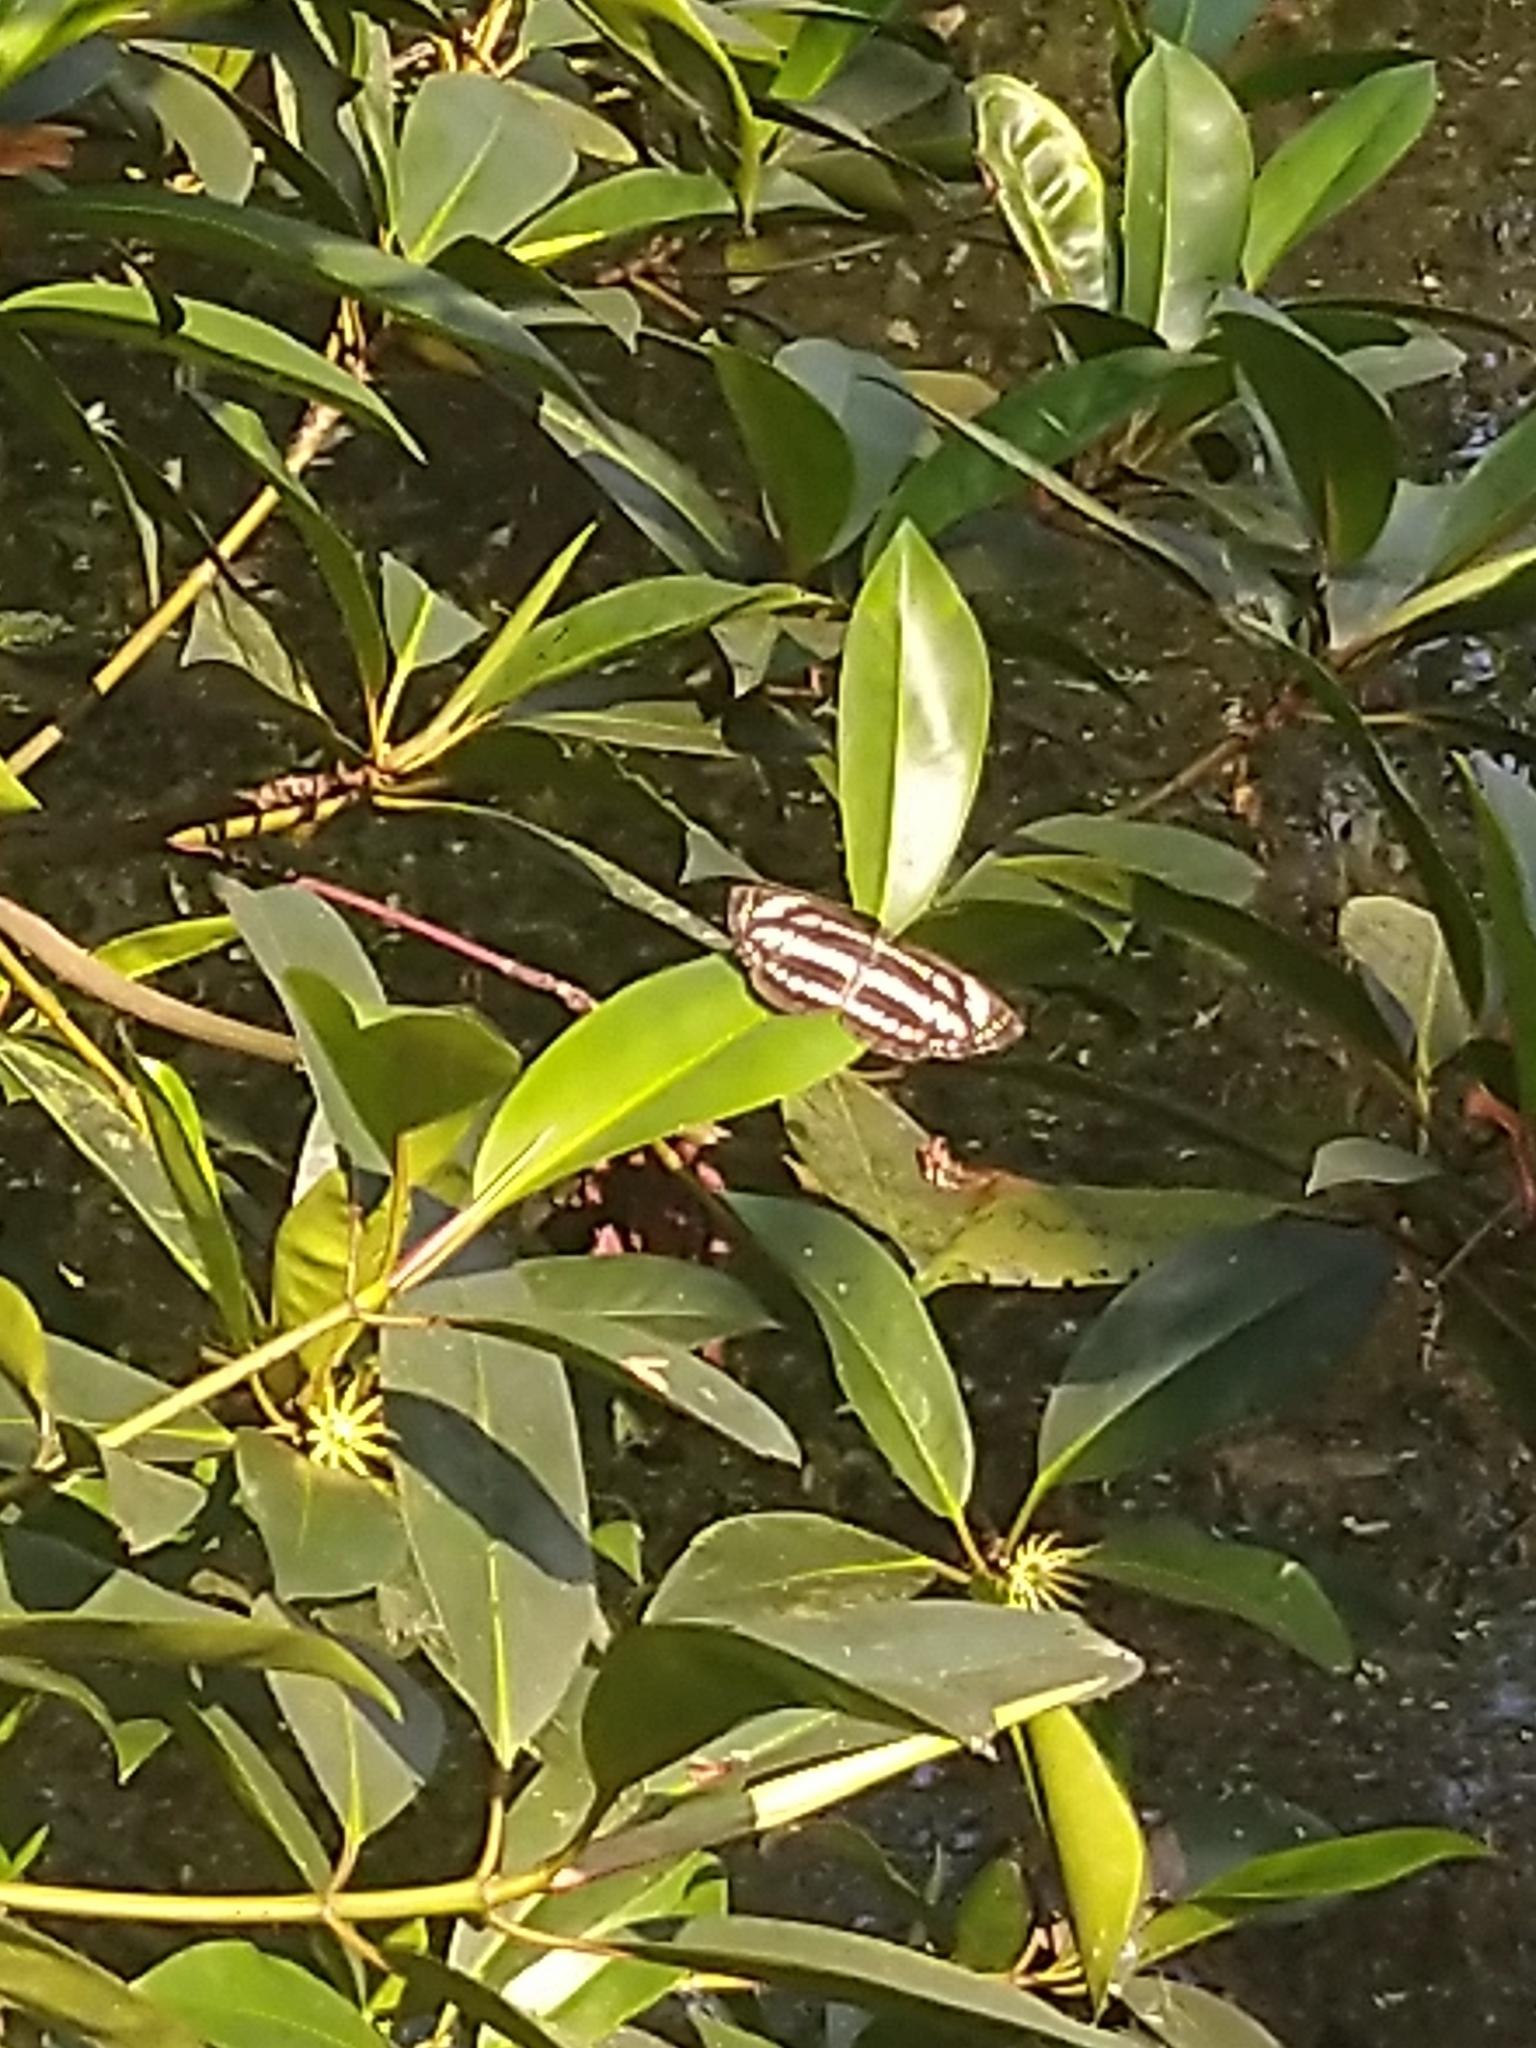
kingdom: Animalia
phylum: Arthropoda
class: Insecta
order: Lepidoptera
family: Nymphalidae
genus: Neptis
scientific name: Neptis hylas
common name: Common sailer
